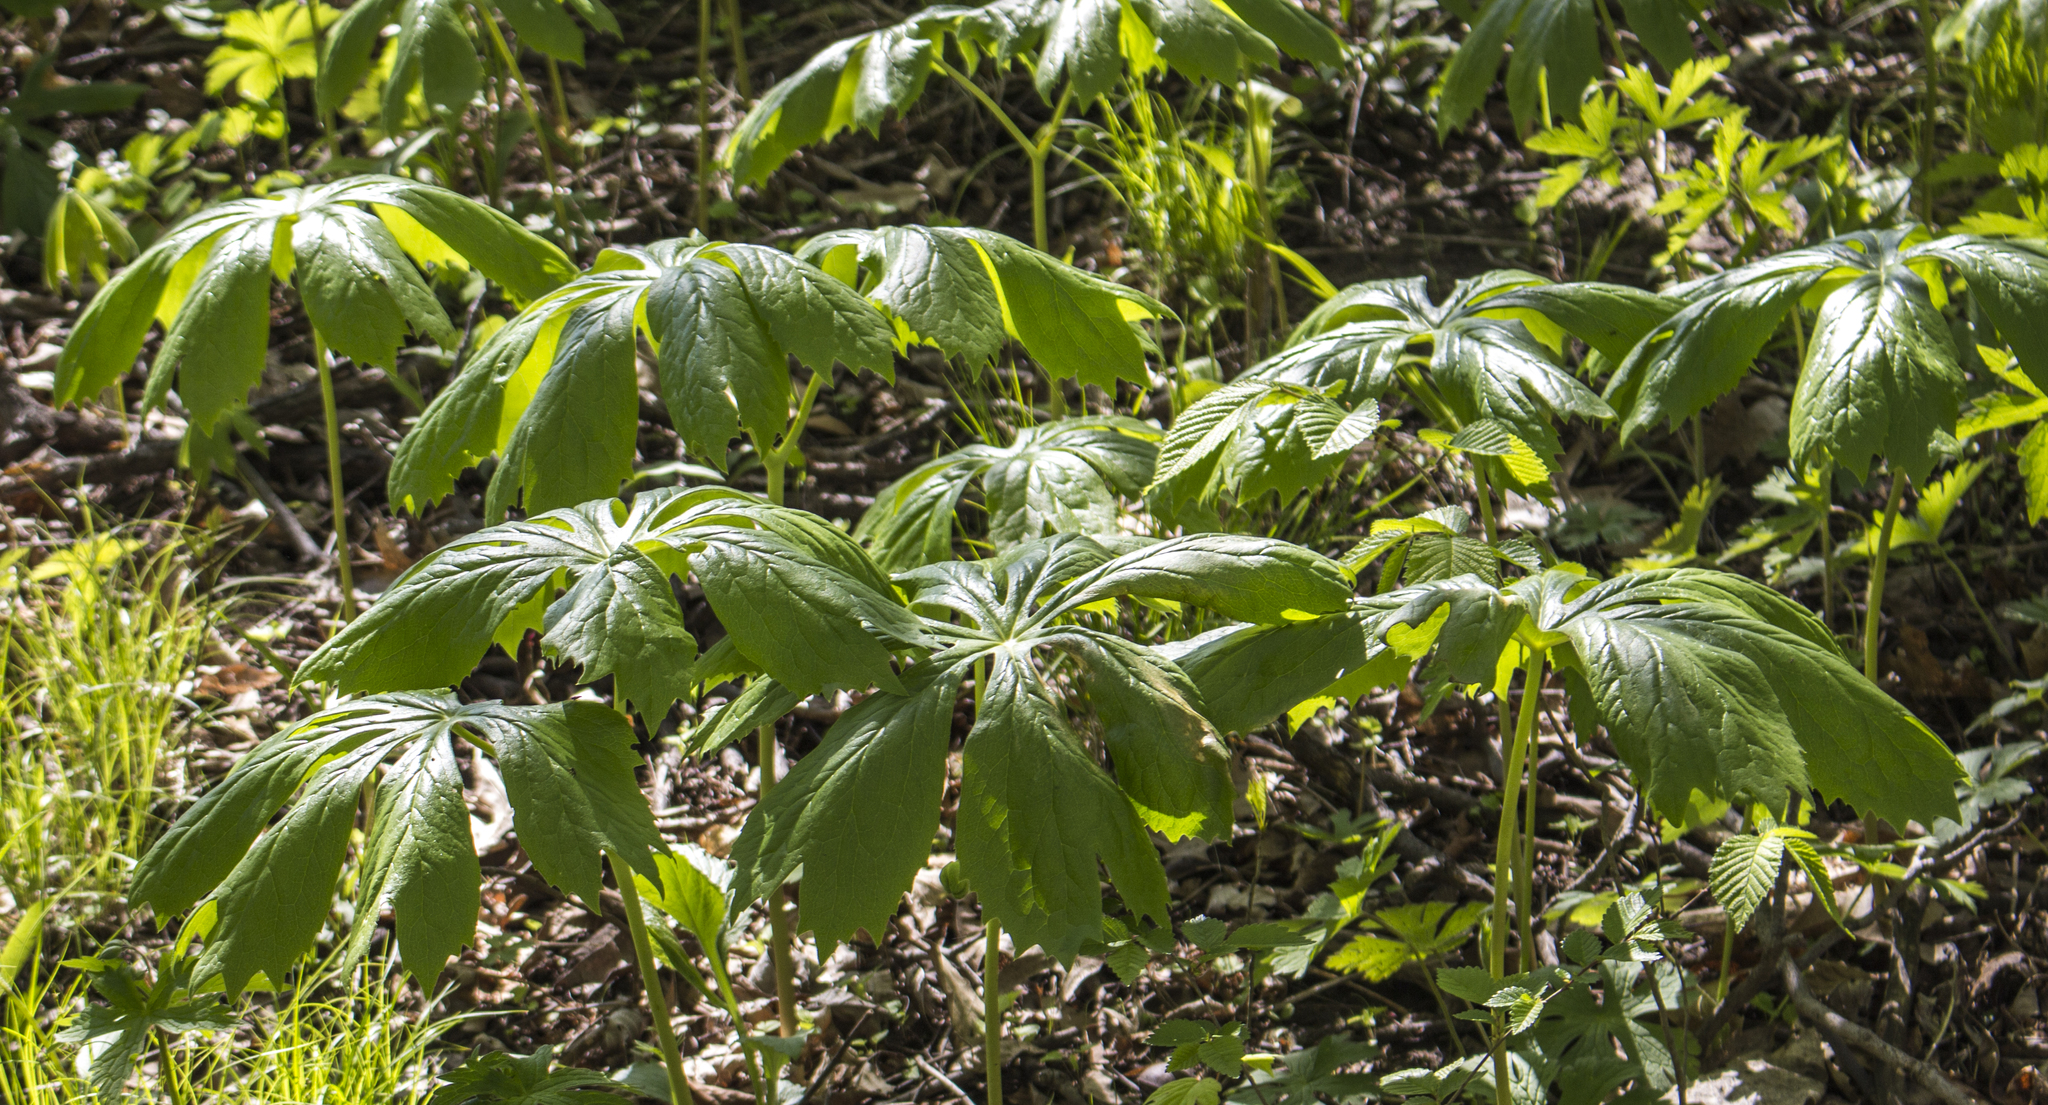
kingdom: Plantae
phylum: Tracheophyta
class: Magnoliopsida
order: Ranunculales
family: Berberidaceae
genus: Podophyllum
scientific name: Podophyllum peltatum
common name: Wild mandrake
